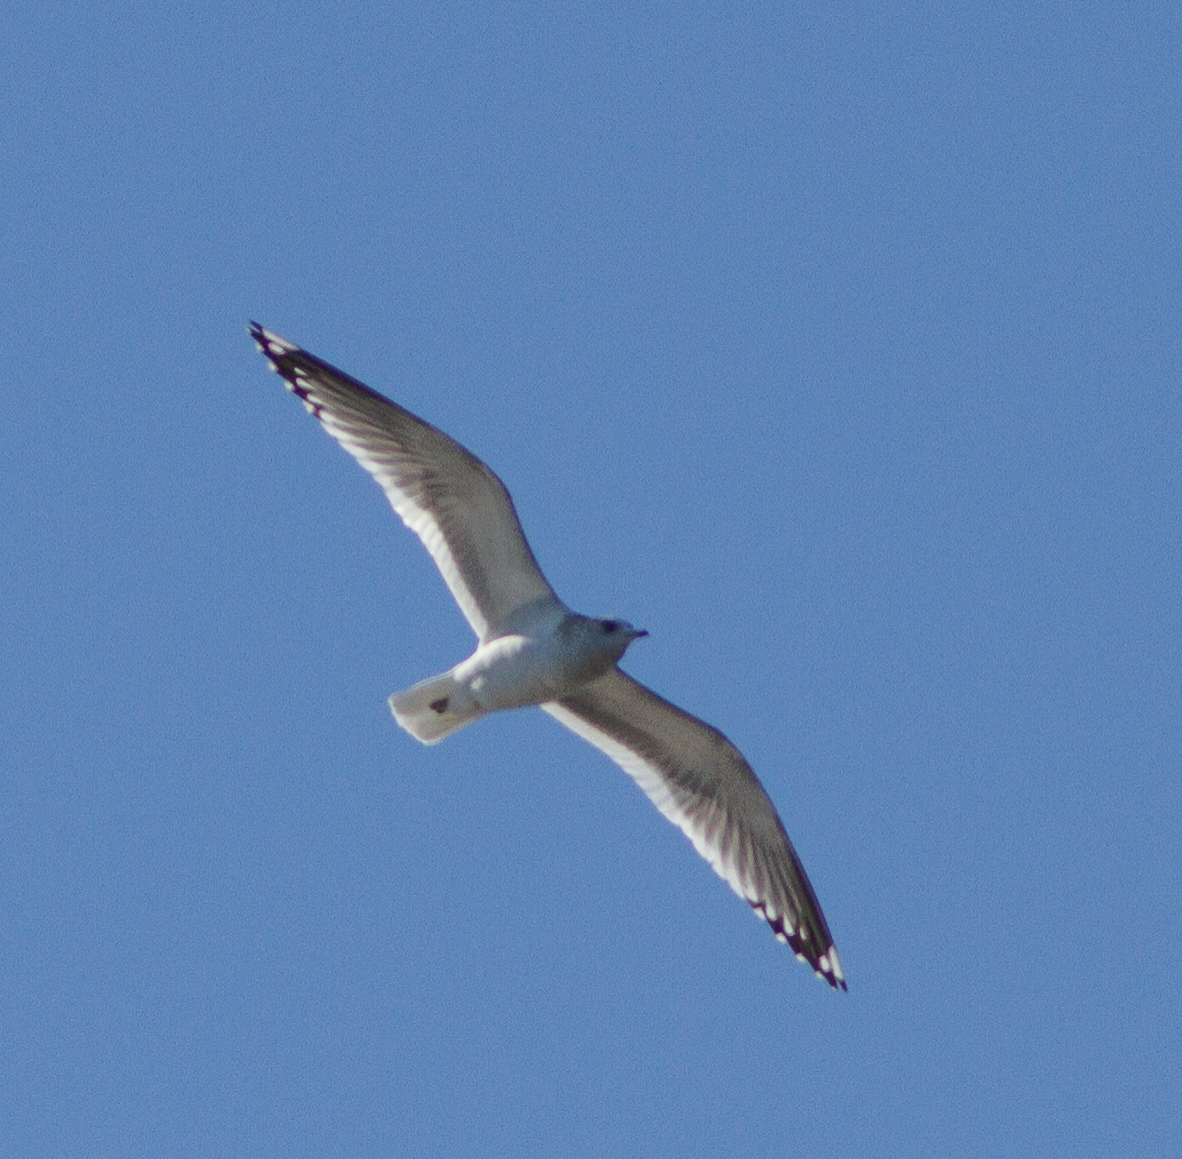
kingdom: Animalia
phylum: Chordata
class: Aves
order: Charadriiformes
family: Laridae
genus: Larus
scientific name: Larus brachyrhynchus
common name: Short-billed gull
